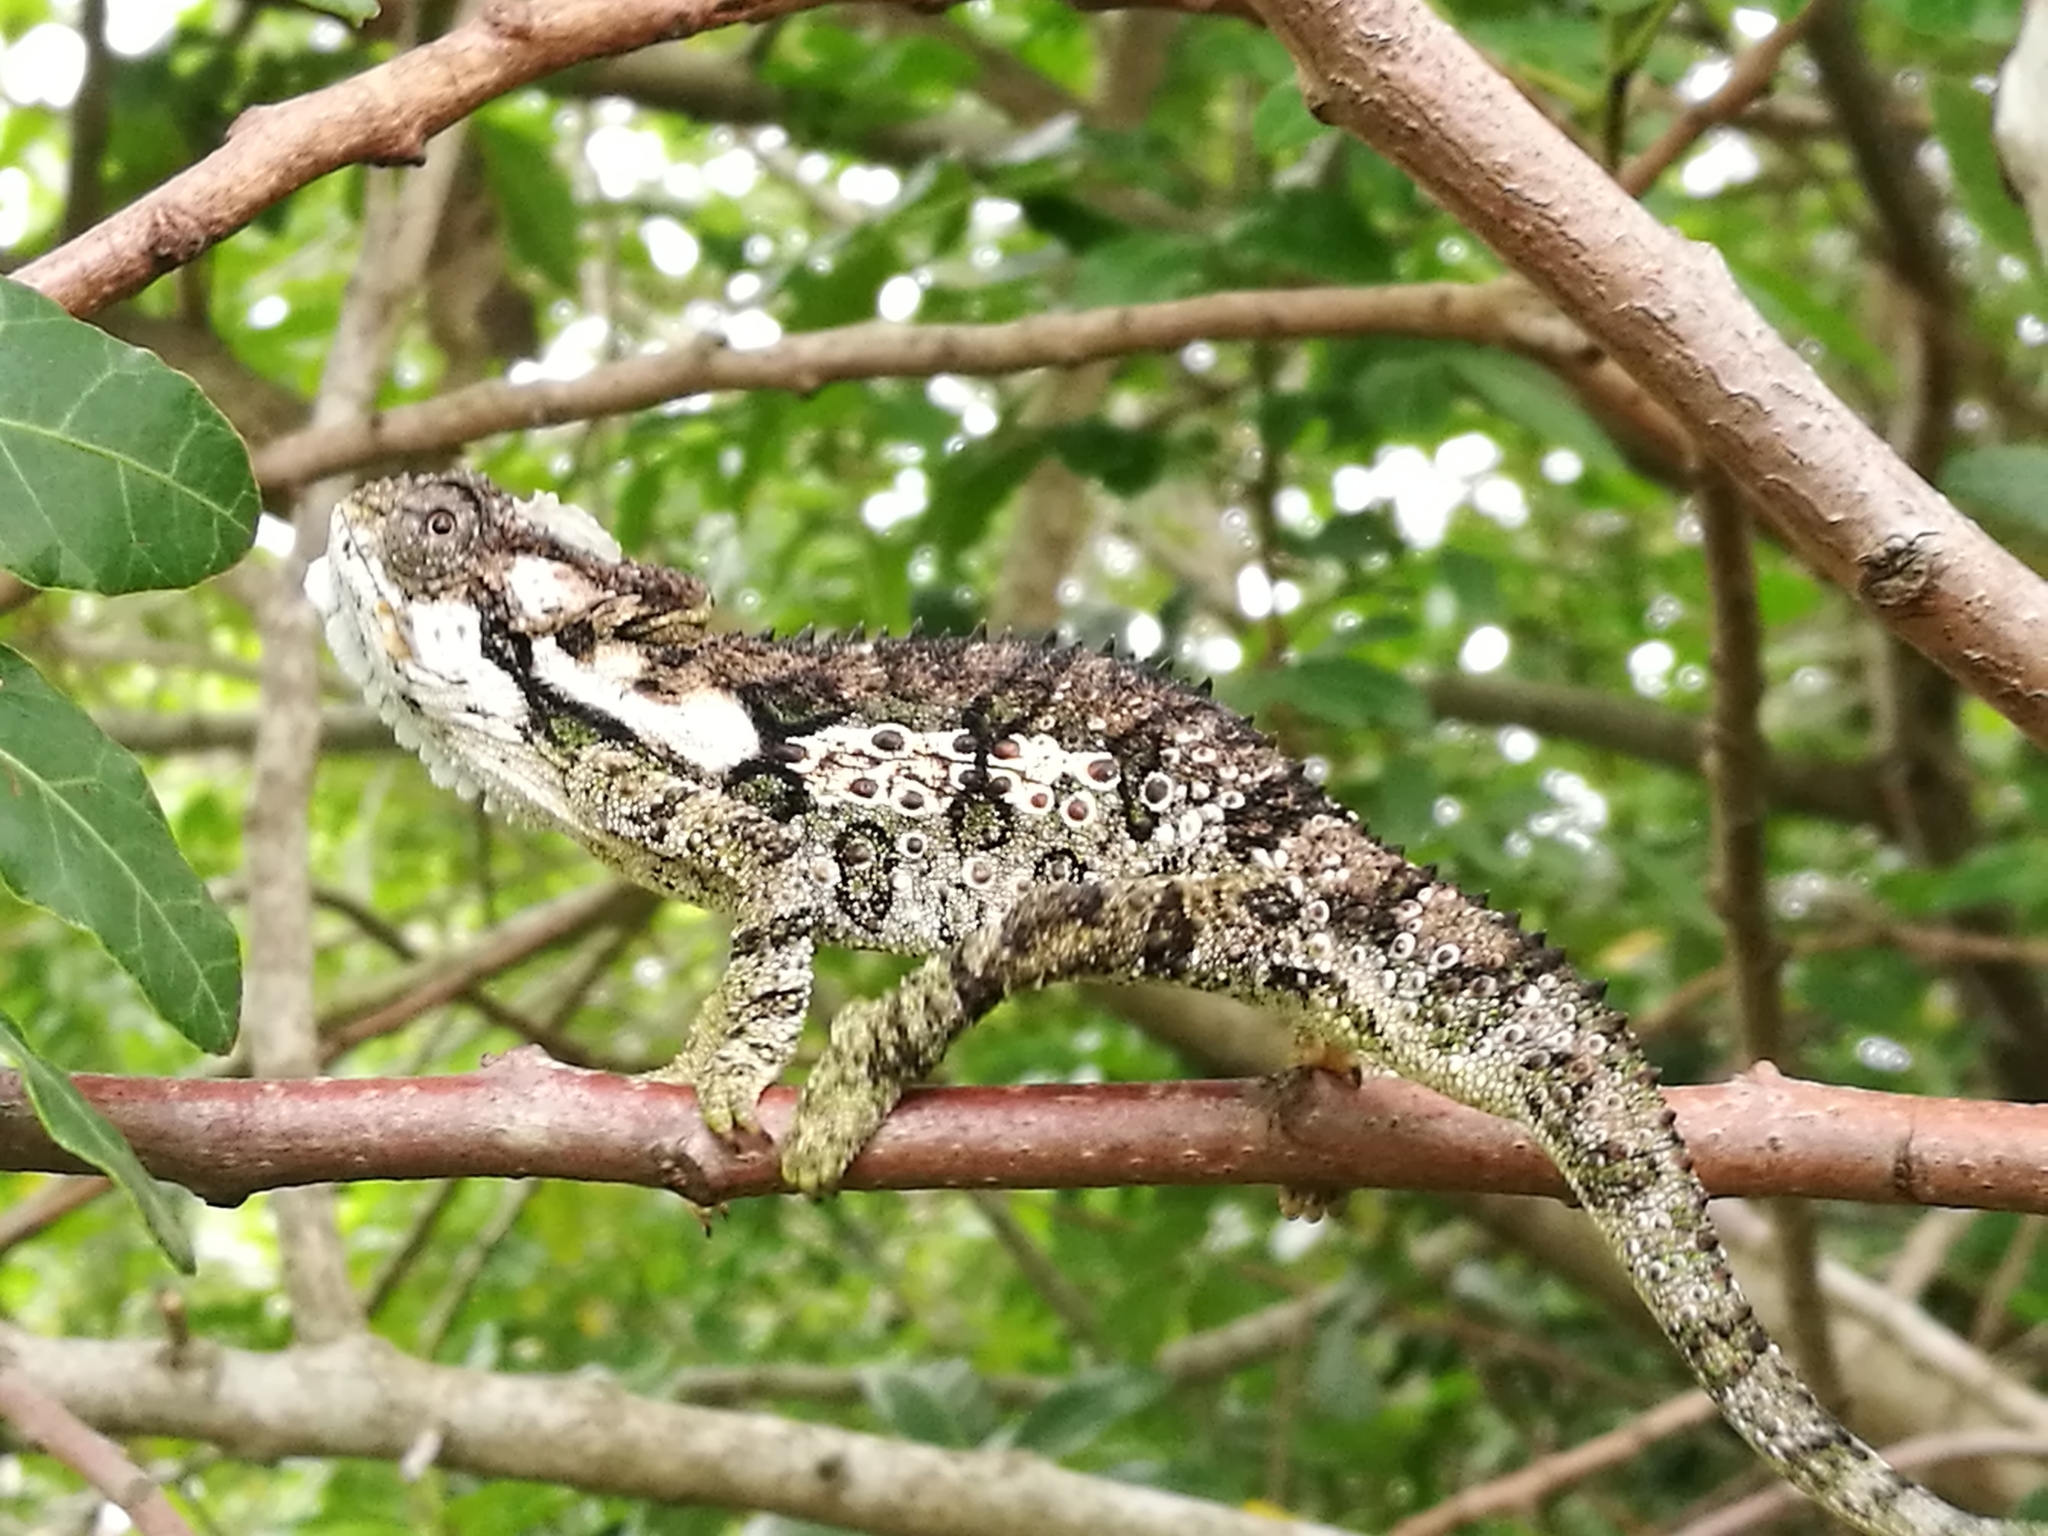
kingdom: Animalia
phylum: Chordata
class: Squamata
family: Chamaeleonidae
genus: Bradypodion
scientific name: Bradypodion ventrale
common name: Eastern cape dwarf chameleon
